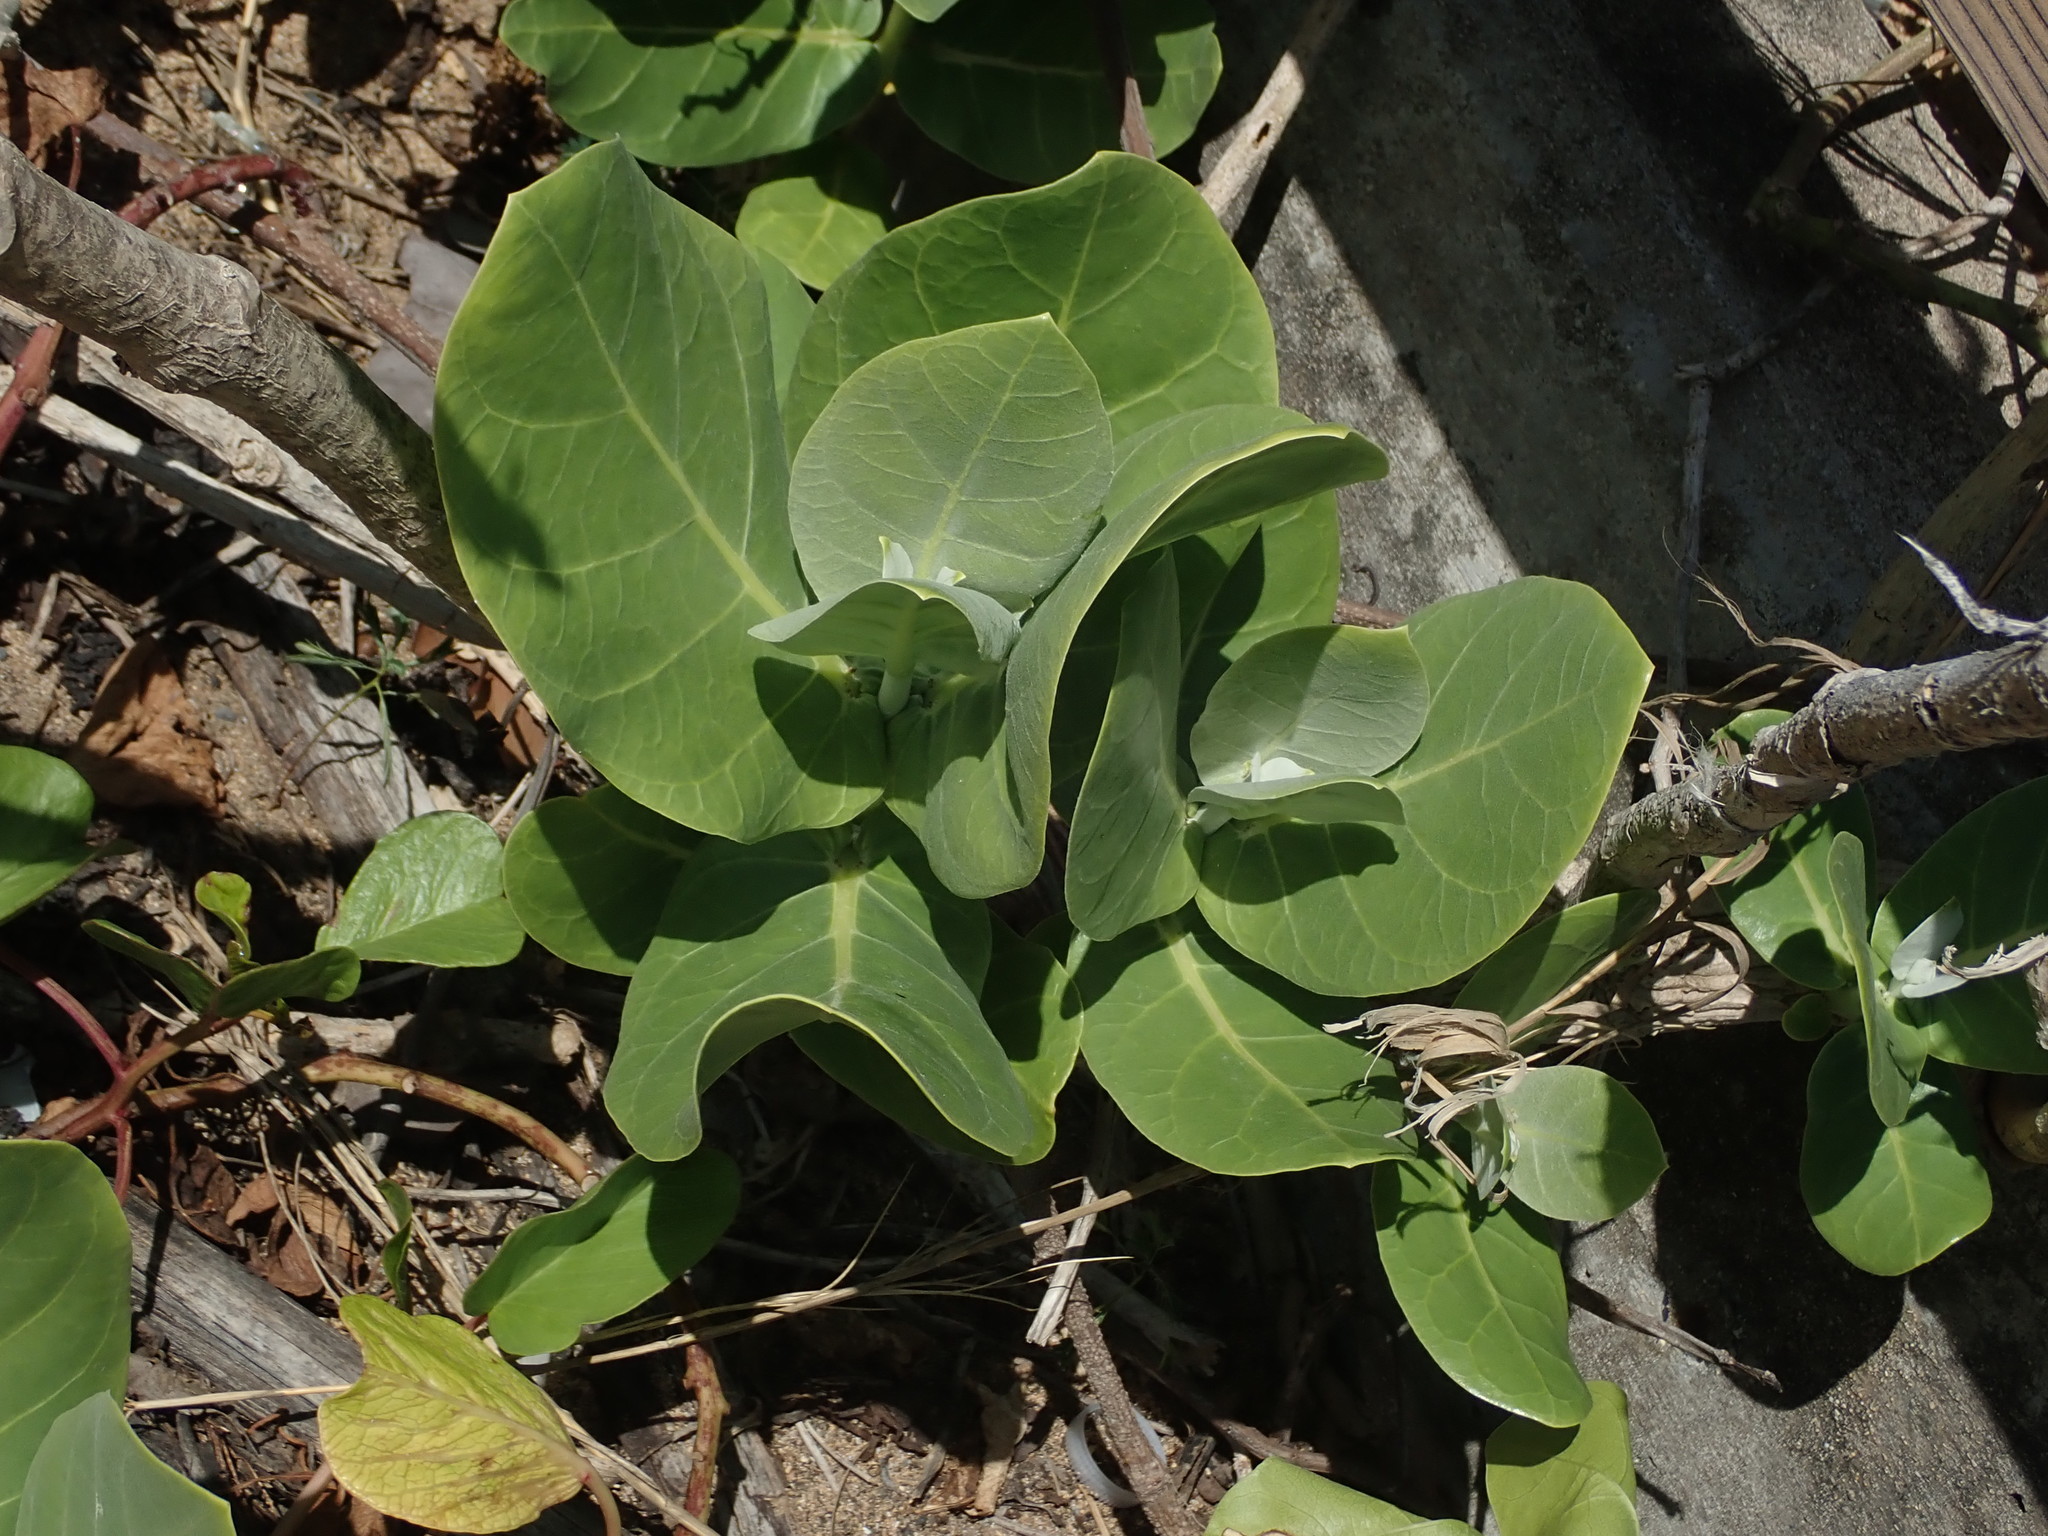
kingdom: Plantae
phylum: Tracheophyta
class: Magnoliopsida
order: Gentianales
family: Apocynaceae
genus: Calotropis
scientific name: Calotropis procera
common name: Roostertree
